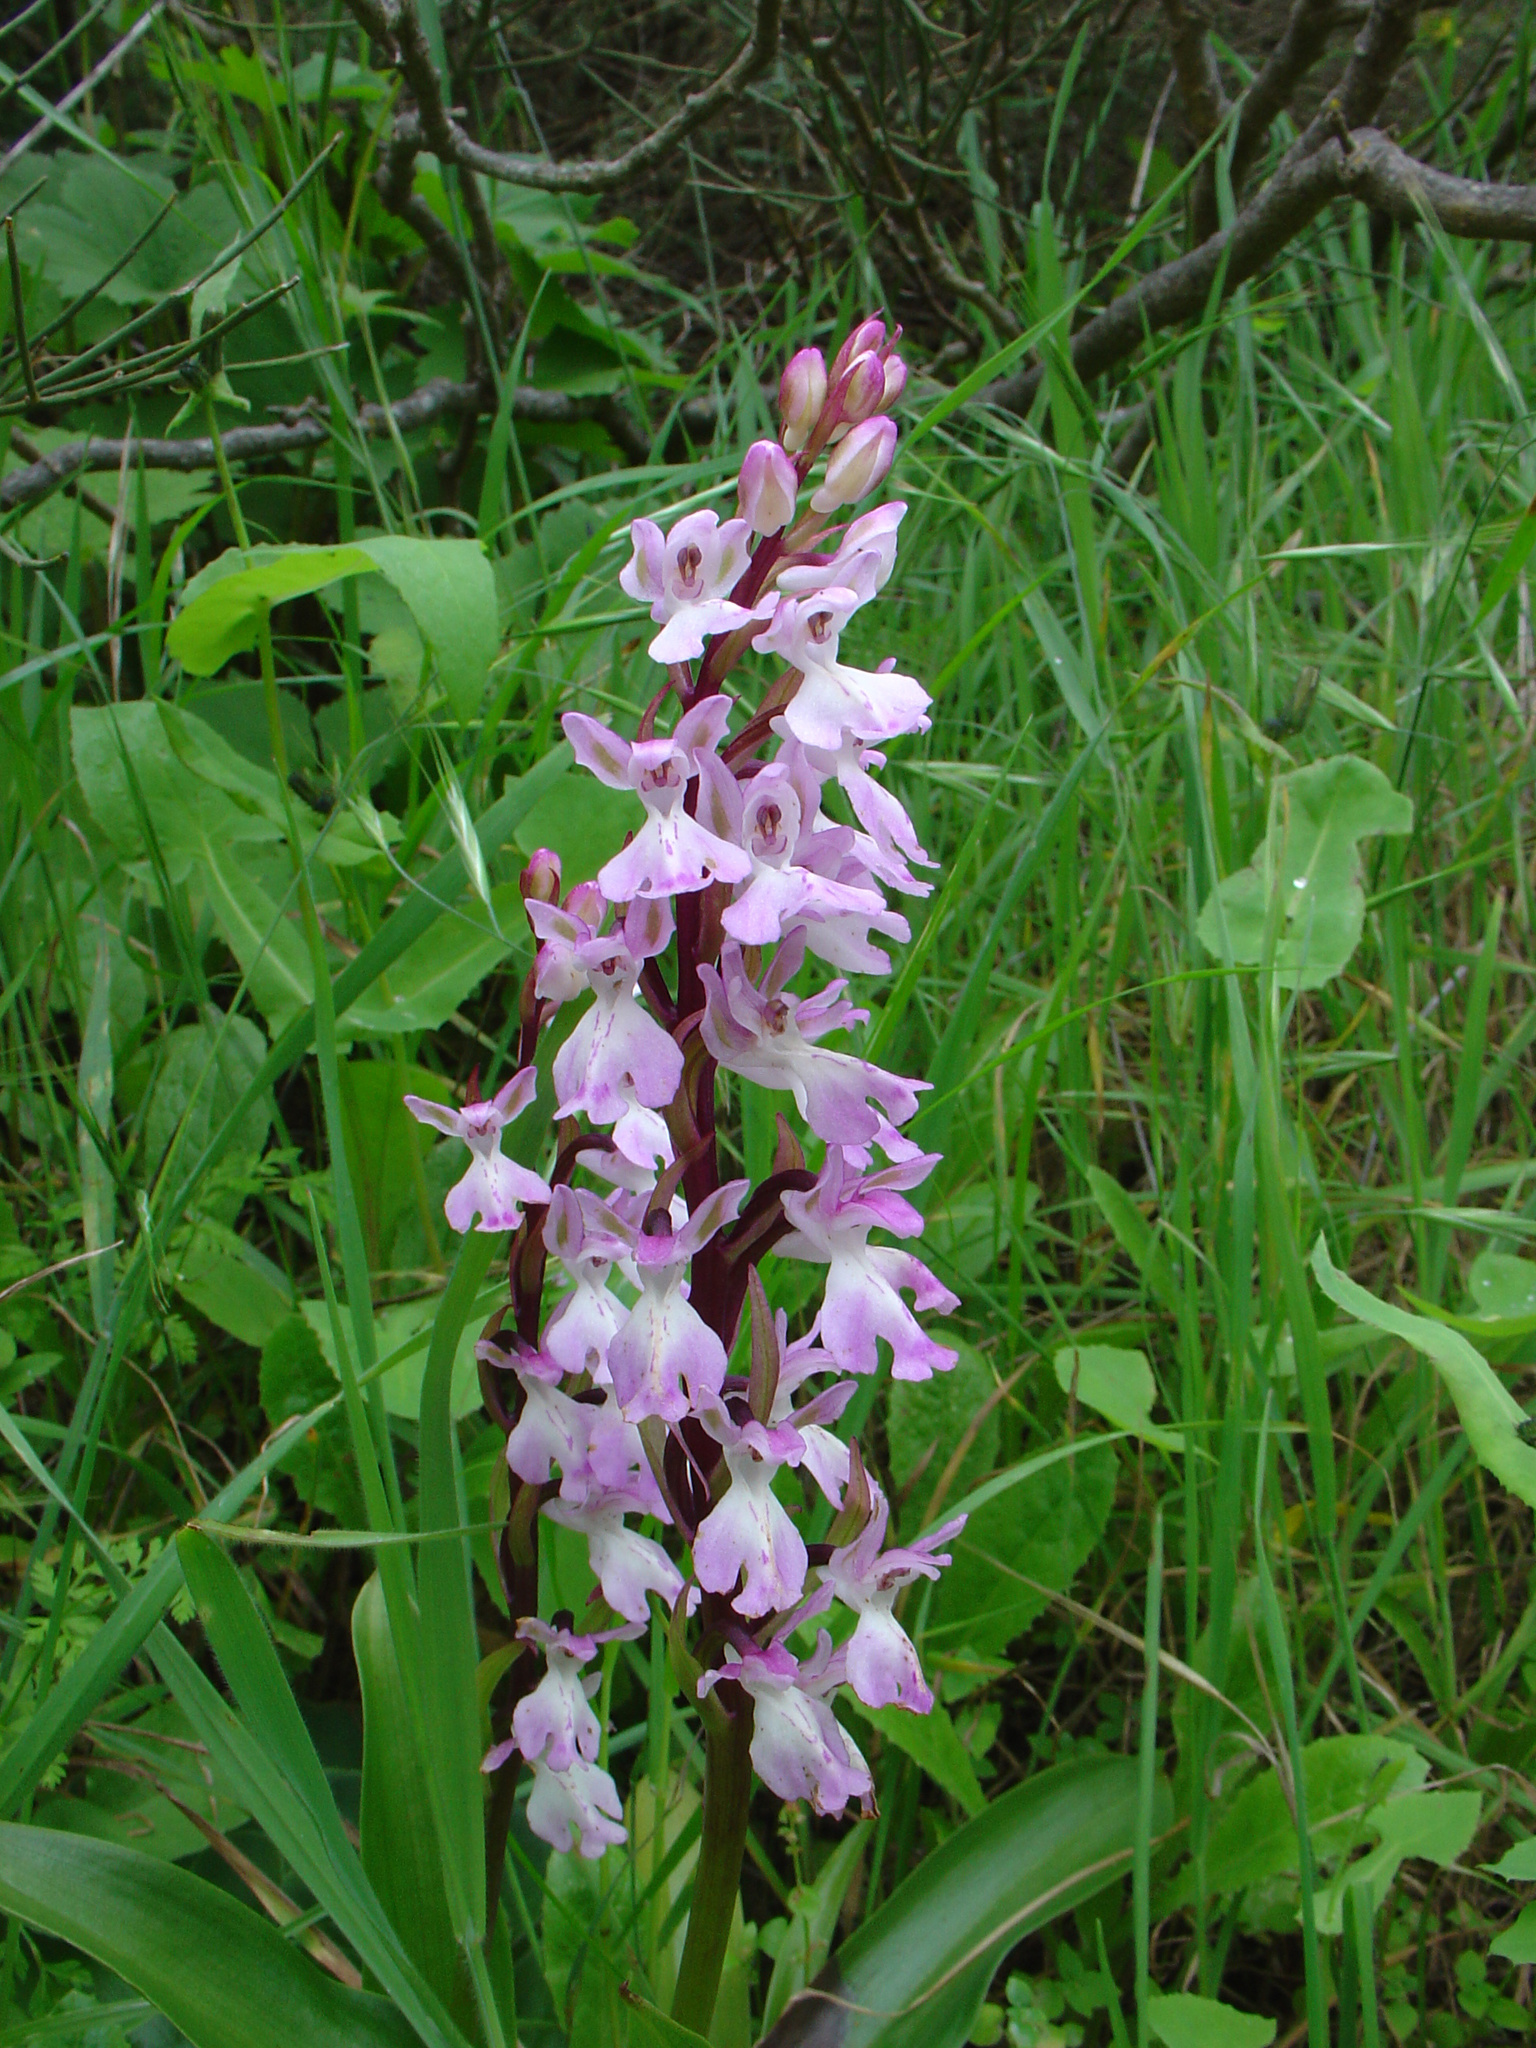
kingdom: Plantae
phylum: Tracheophyta
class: Liliopsida
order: Asparagales
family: Orchidaceae
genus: Orchis
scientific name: Orchis canariensis
